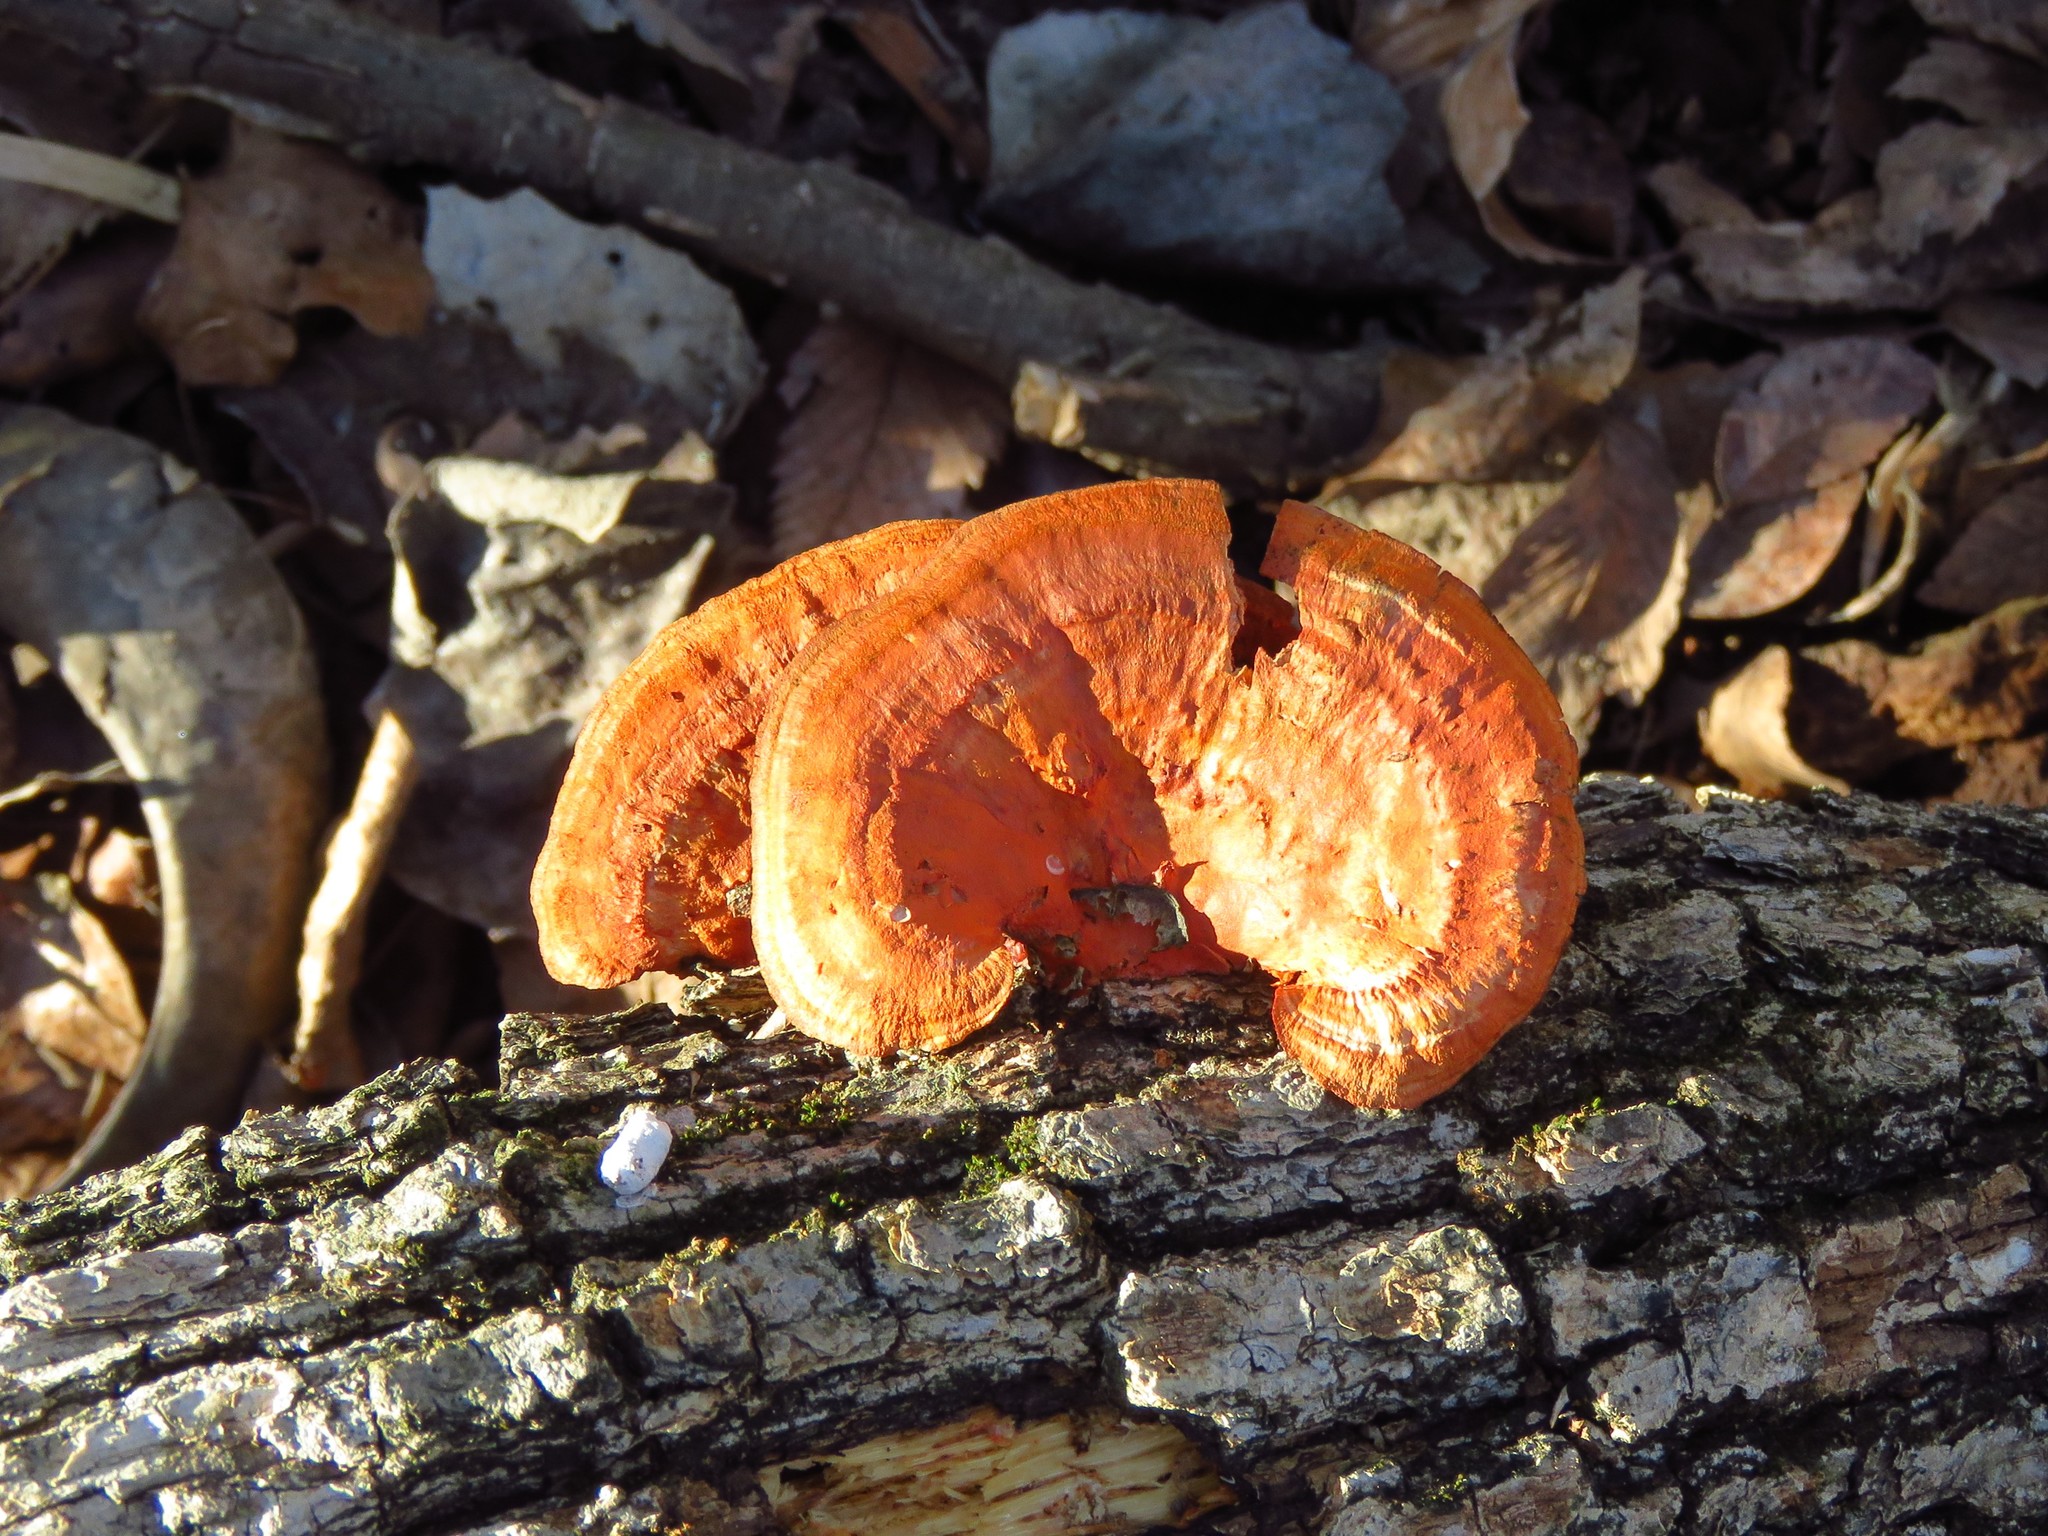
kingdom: Fungi
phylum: Basidiomycota
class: Agaricomycetes
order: Polyporales
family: Polyporaceae
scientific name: Polyporaceae
